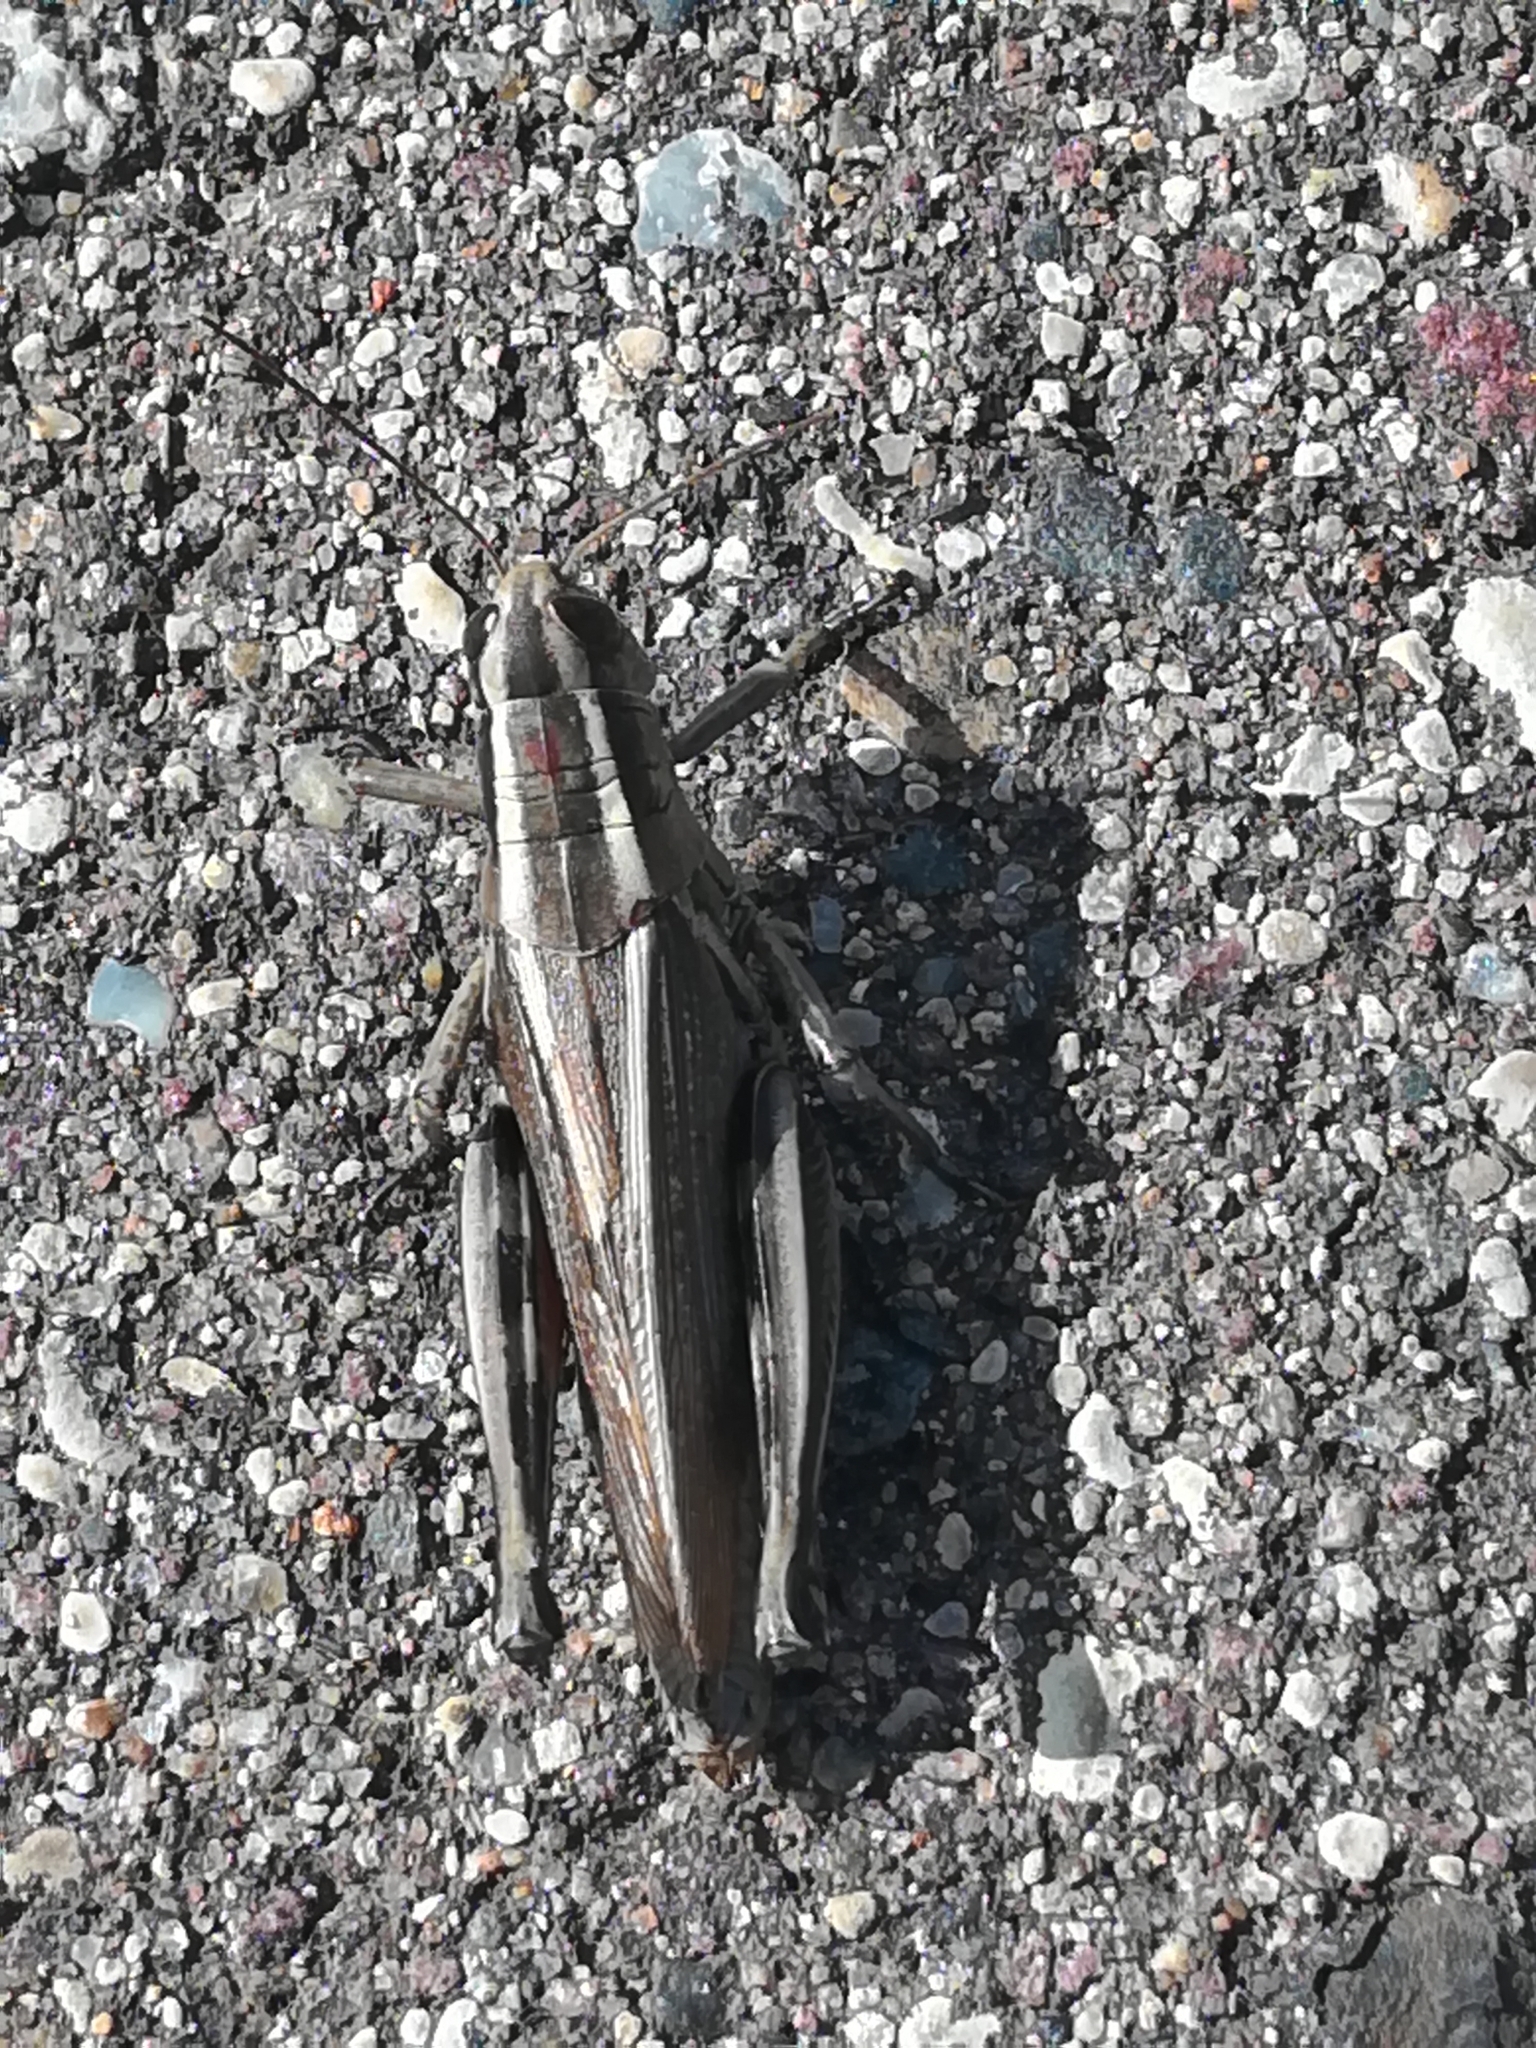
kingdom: Animalia
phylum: Arthropoda
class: Insecta
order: Orthoptera
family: Acrididae
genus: Melanoplus
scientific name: Melanoplus bivittatus
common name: Two-striped grasshopper
